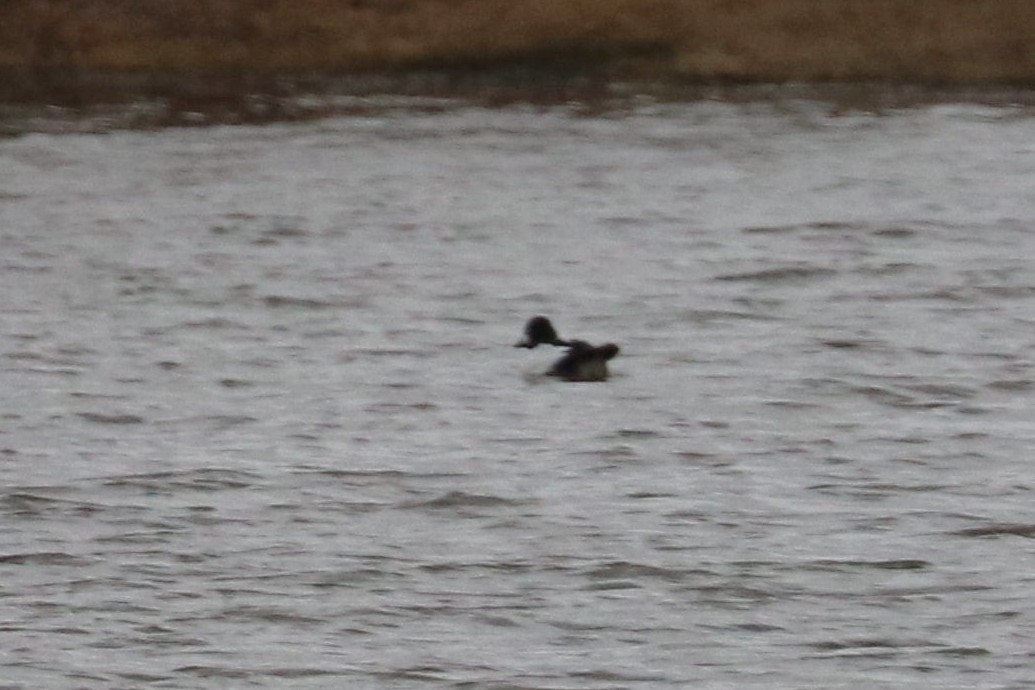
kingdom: Animalia
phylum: Chordata
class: Aves
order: Anseriformes
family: Anatidae
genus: Bucephala
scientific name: Bucephala clangula
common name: Common goldeneye
